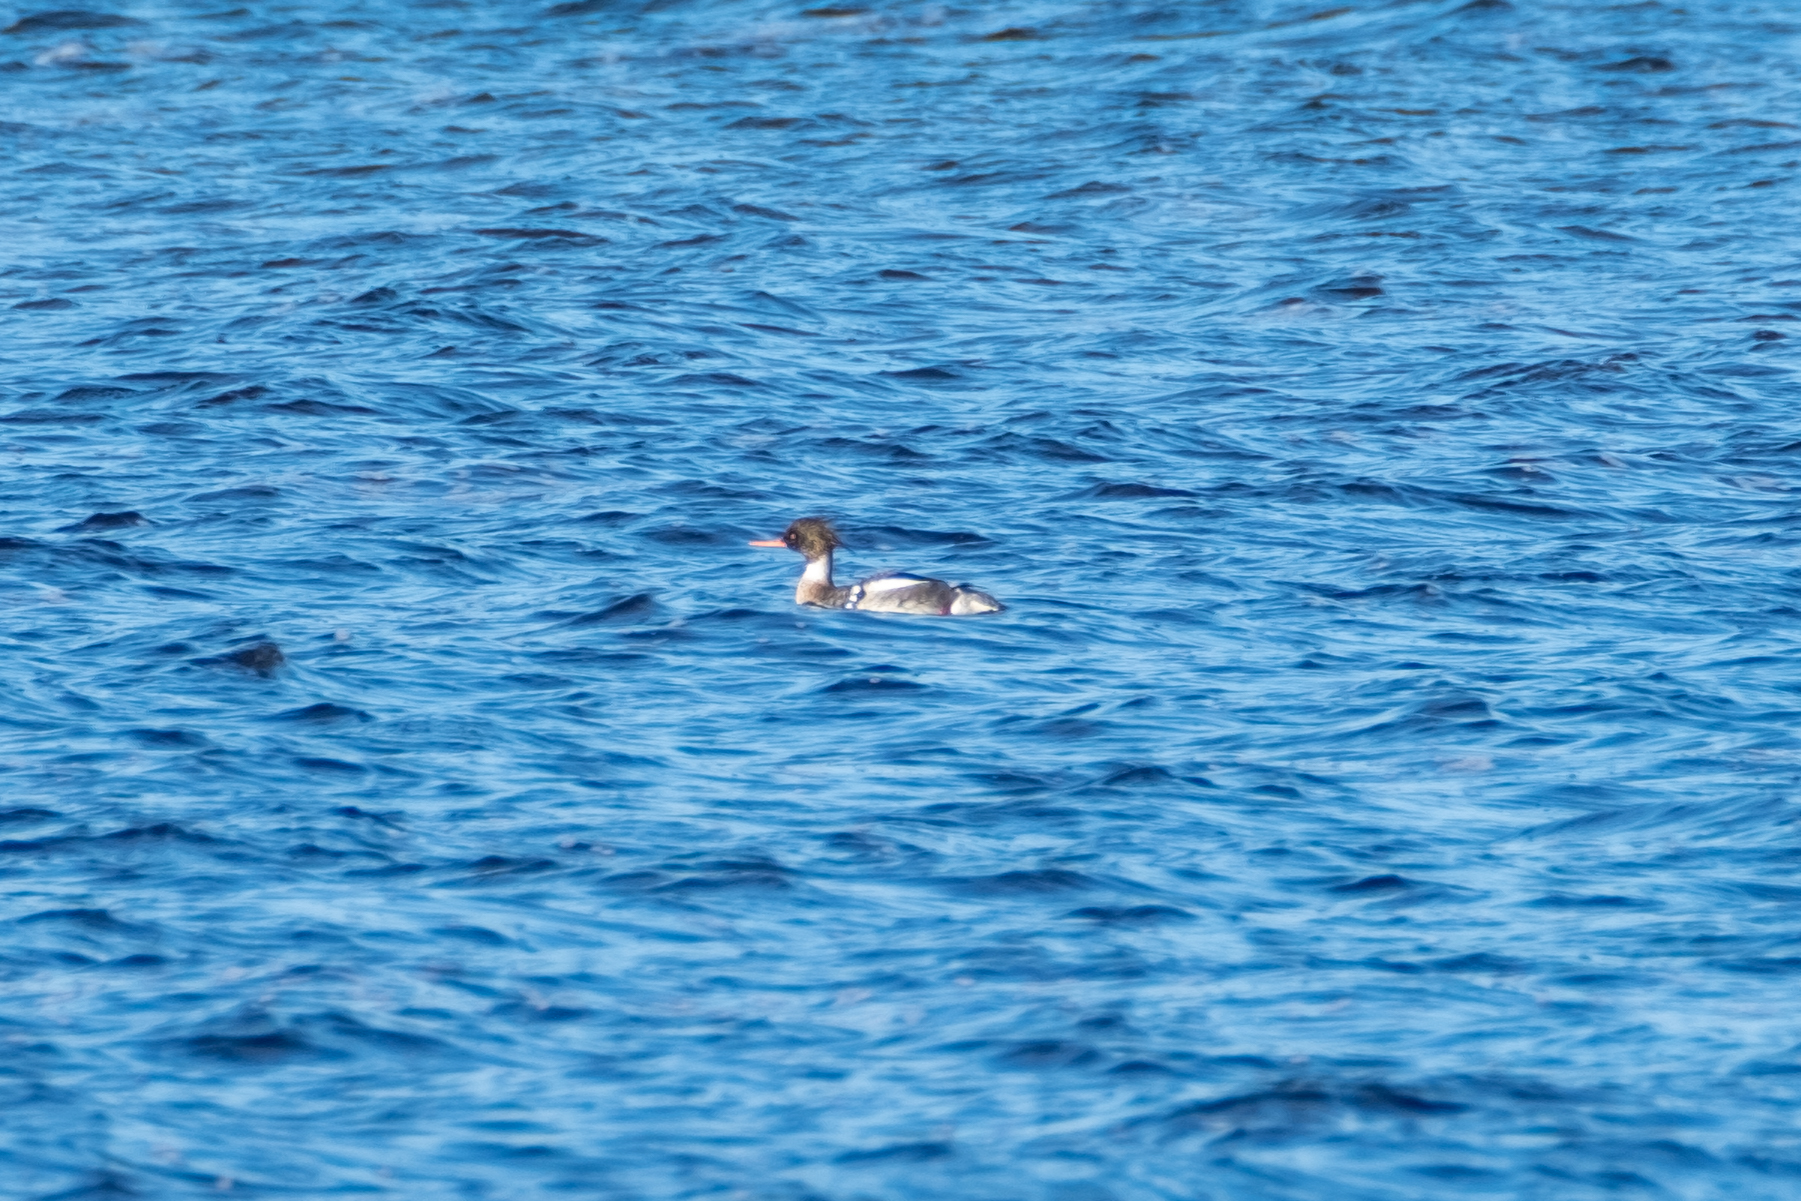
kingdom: Animalia
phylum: Chordata
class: Aves
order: Anseriformes
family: Anatidae
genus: Mergus
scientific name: Mergus serrator
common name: Red-breasted merganser
